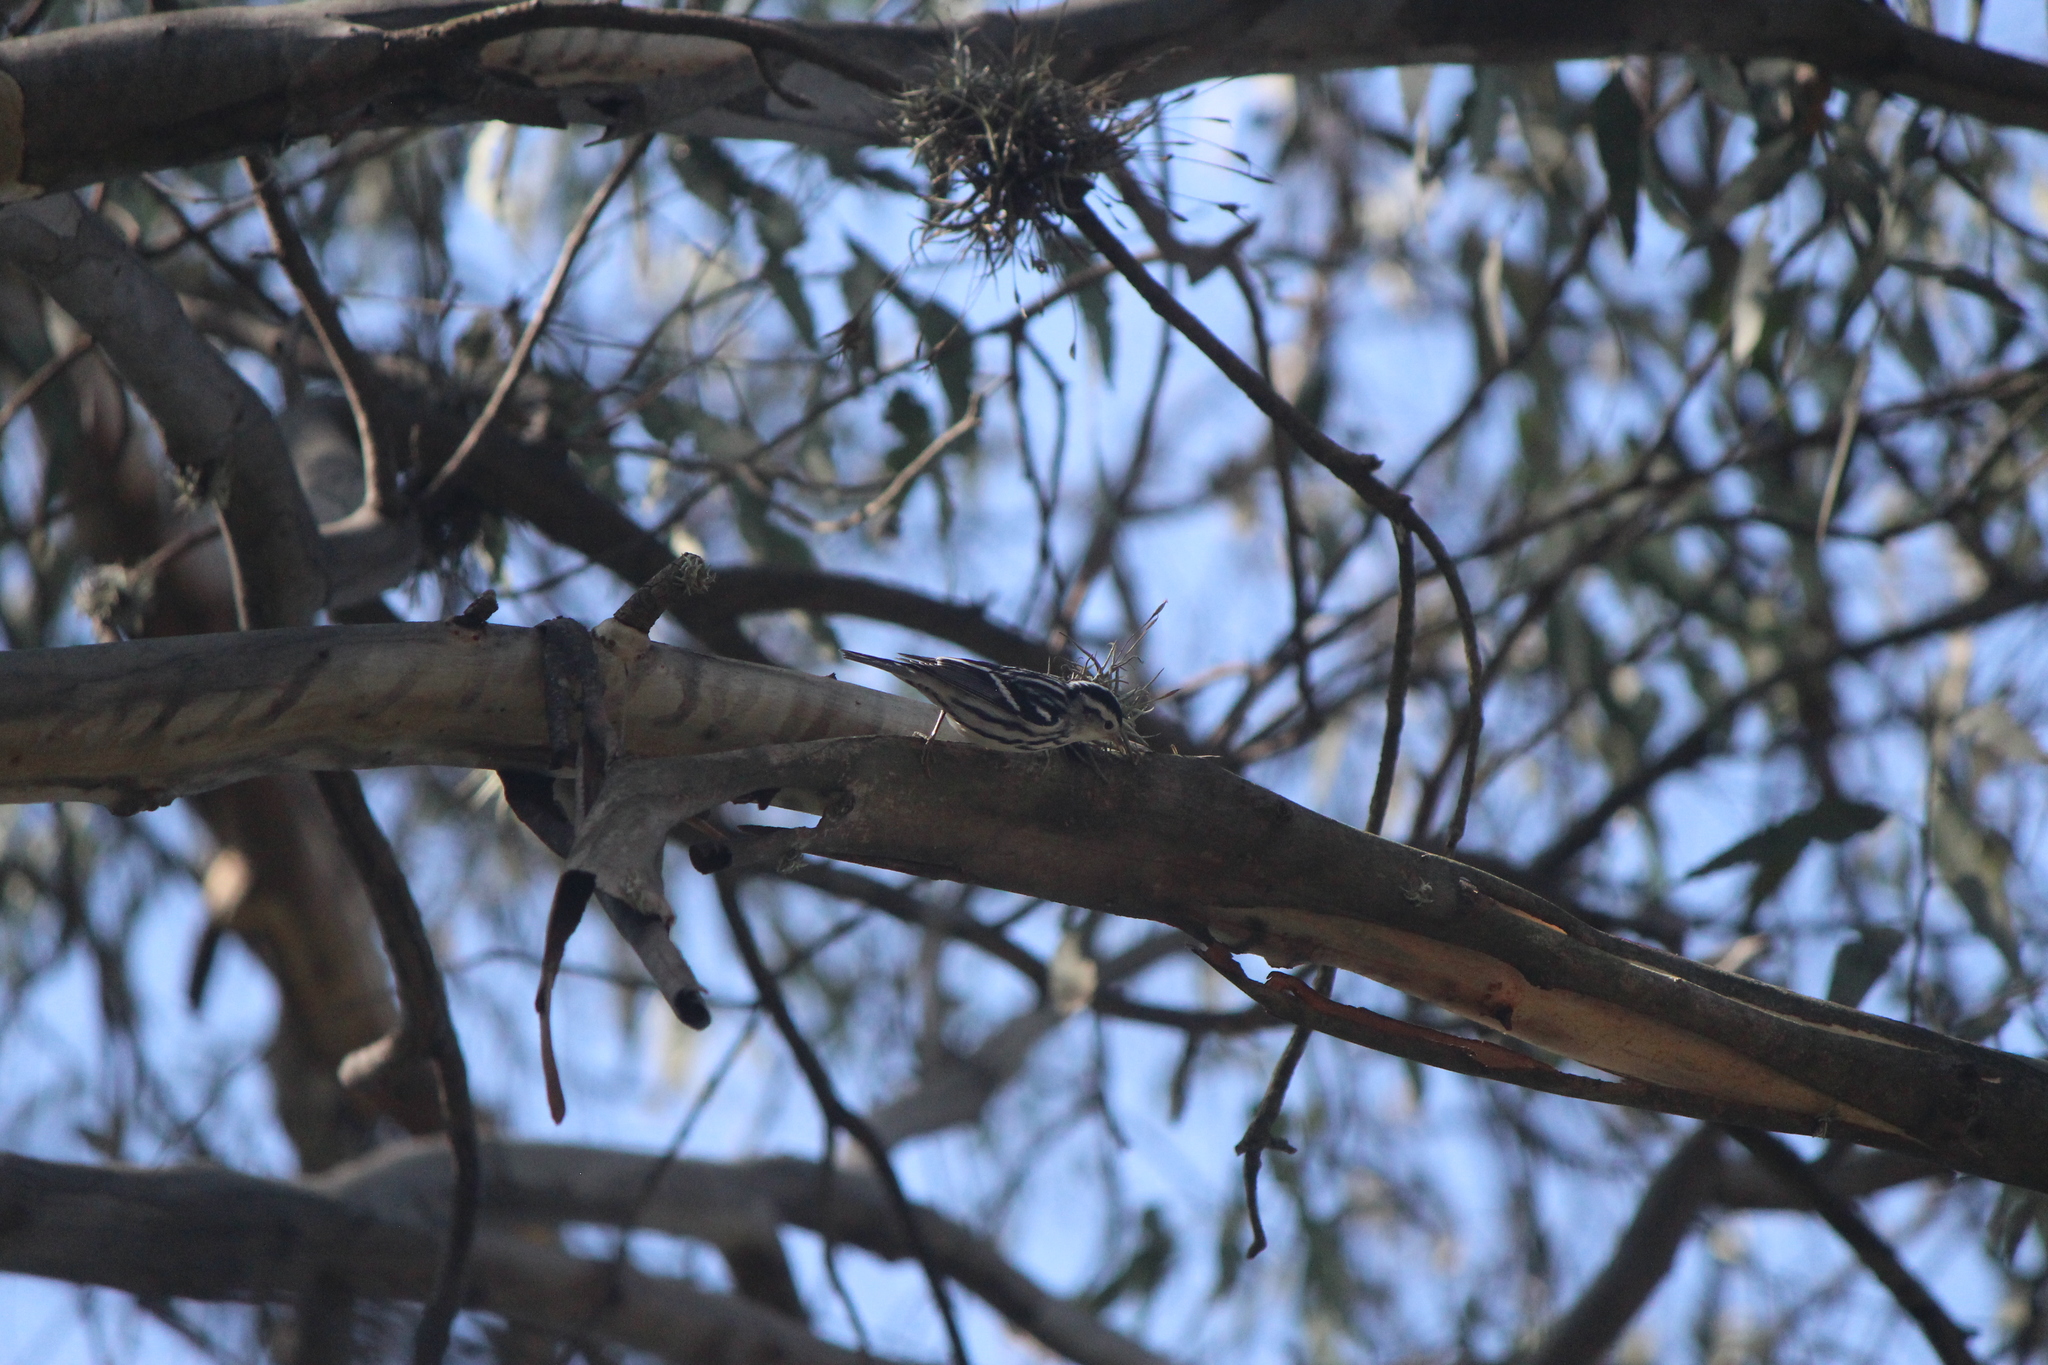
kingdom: Animalia
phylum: Chordata
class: Aves
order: Passeriformes
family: Parulidae
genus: Mniotilta
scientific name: Mniotilta varia
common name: Black-and-white warbler
